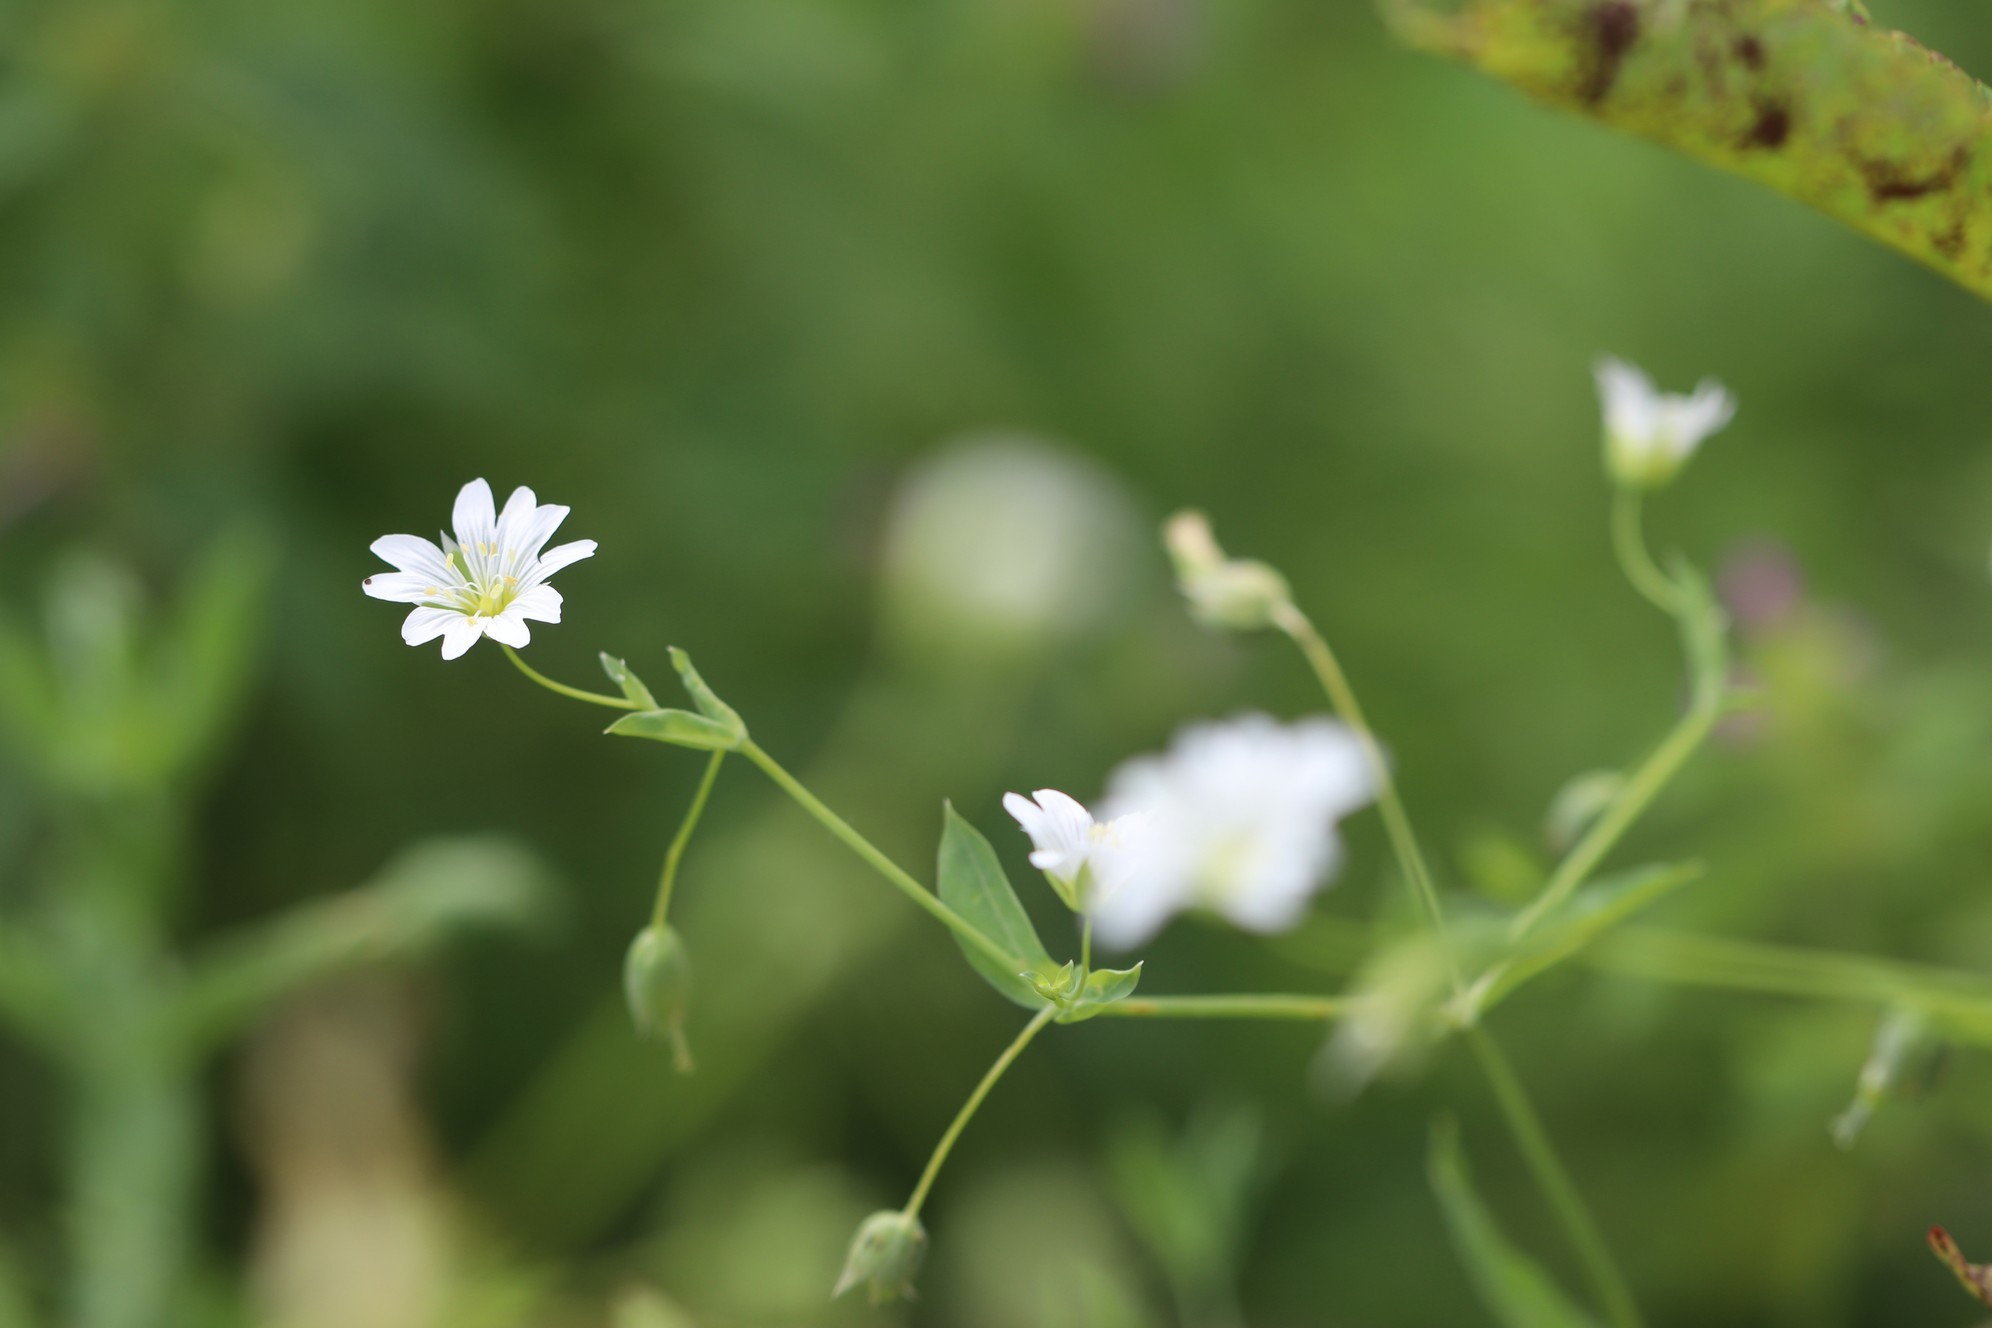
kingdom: Plantae
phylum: Tracheophyta
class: Magnoliopsida
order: Caryophyllales
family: Caryophyllaceae
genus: Cerastium
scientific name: Cerastium davuricum
